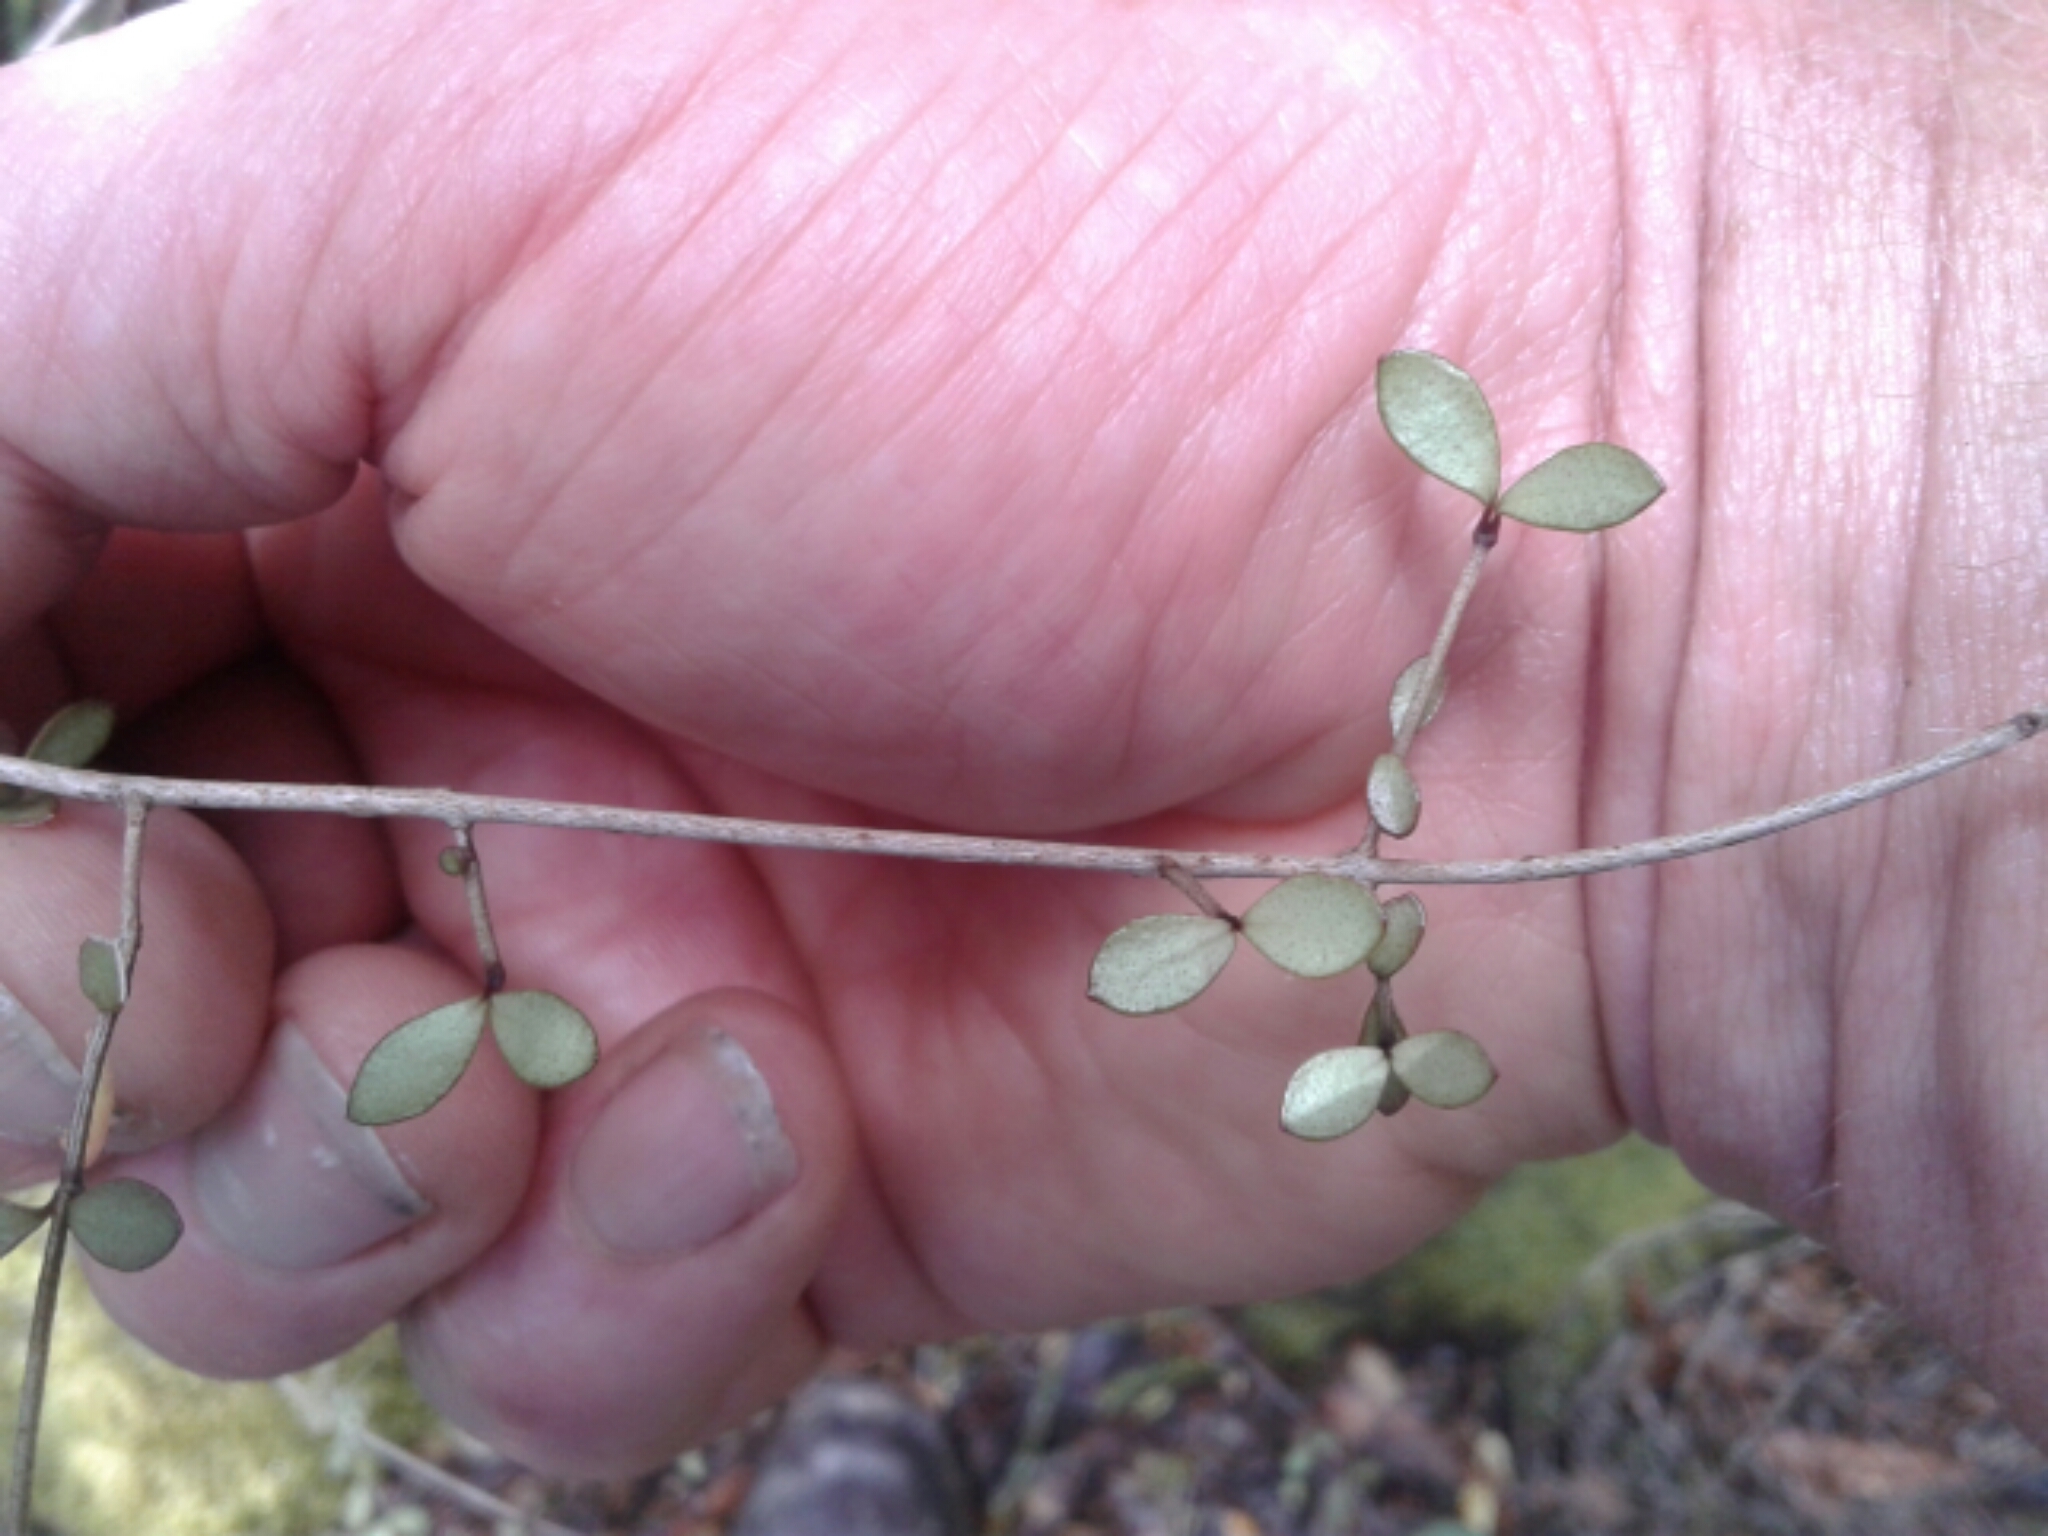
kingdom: Plantae
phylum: Tracheophyta
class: Magnoliopsida
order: Myrtales
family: Myrtaceae
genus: Neomyrtus
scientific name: Neomyrtus pedunculata
